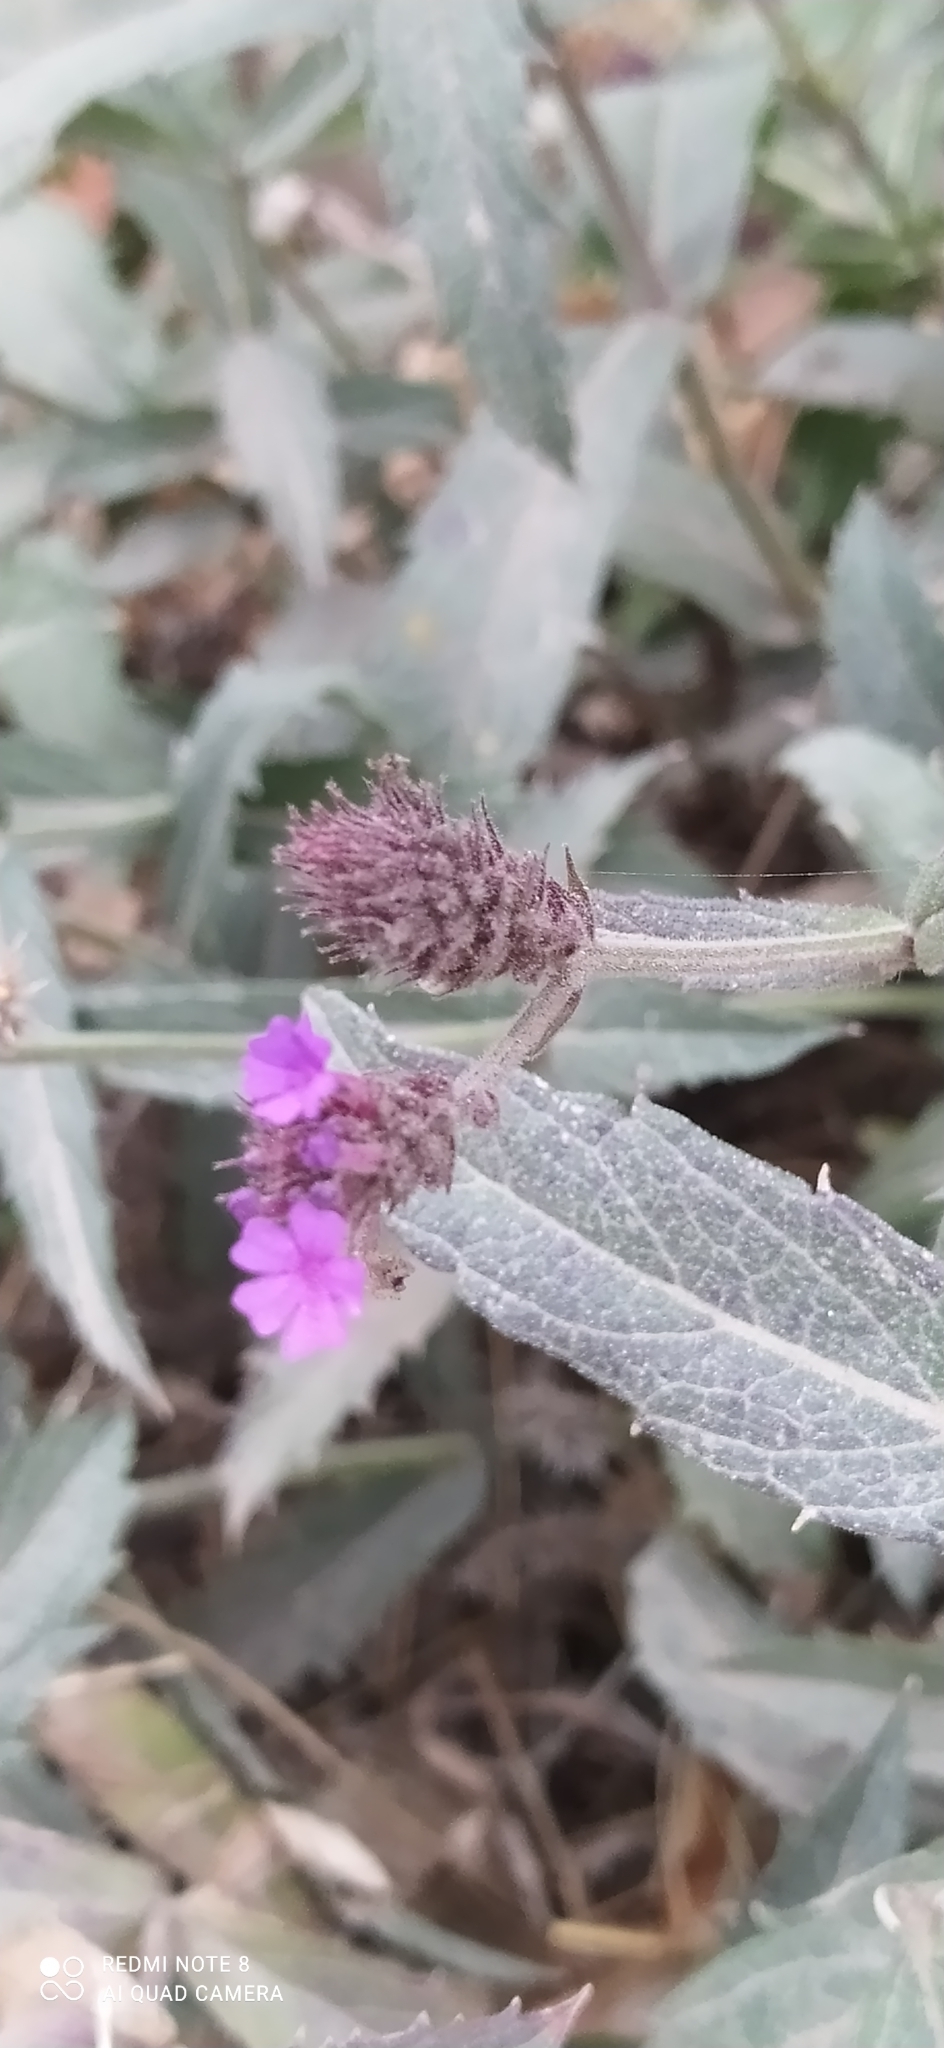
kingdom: Plantae
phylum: Tracheophyta
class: Magnoliopsida
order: Lamiales
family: Verbenaceae
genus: Verbena
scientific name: Verbena rigida
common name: Slender vervain
